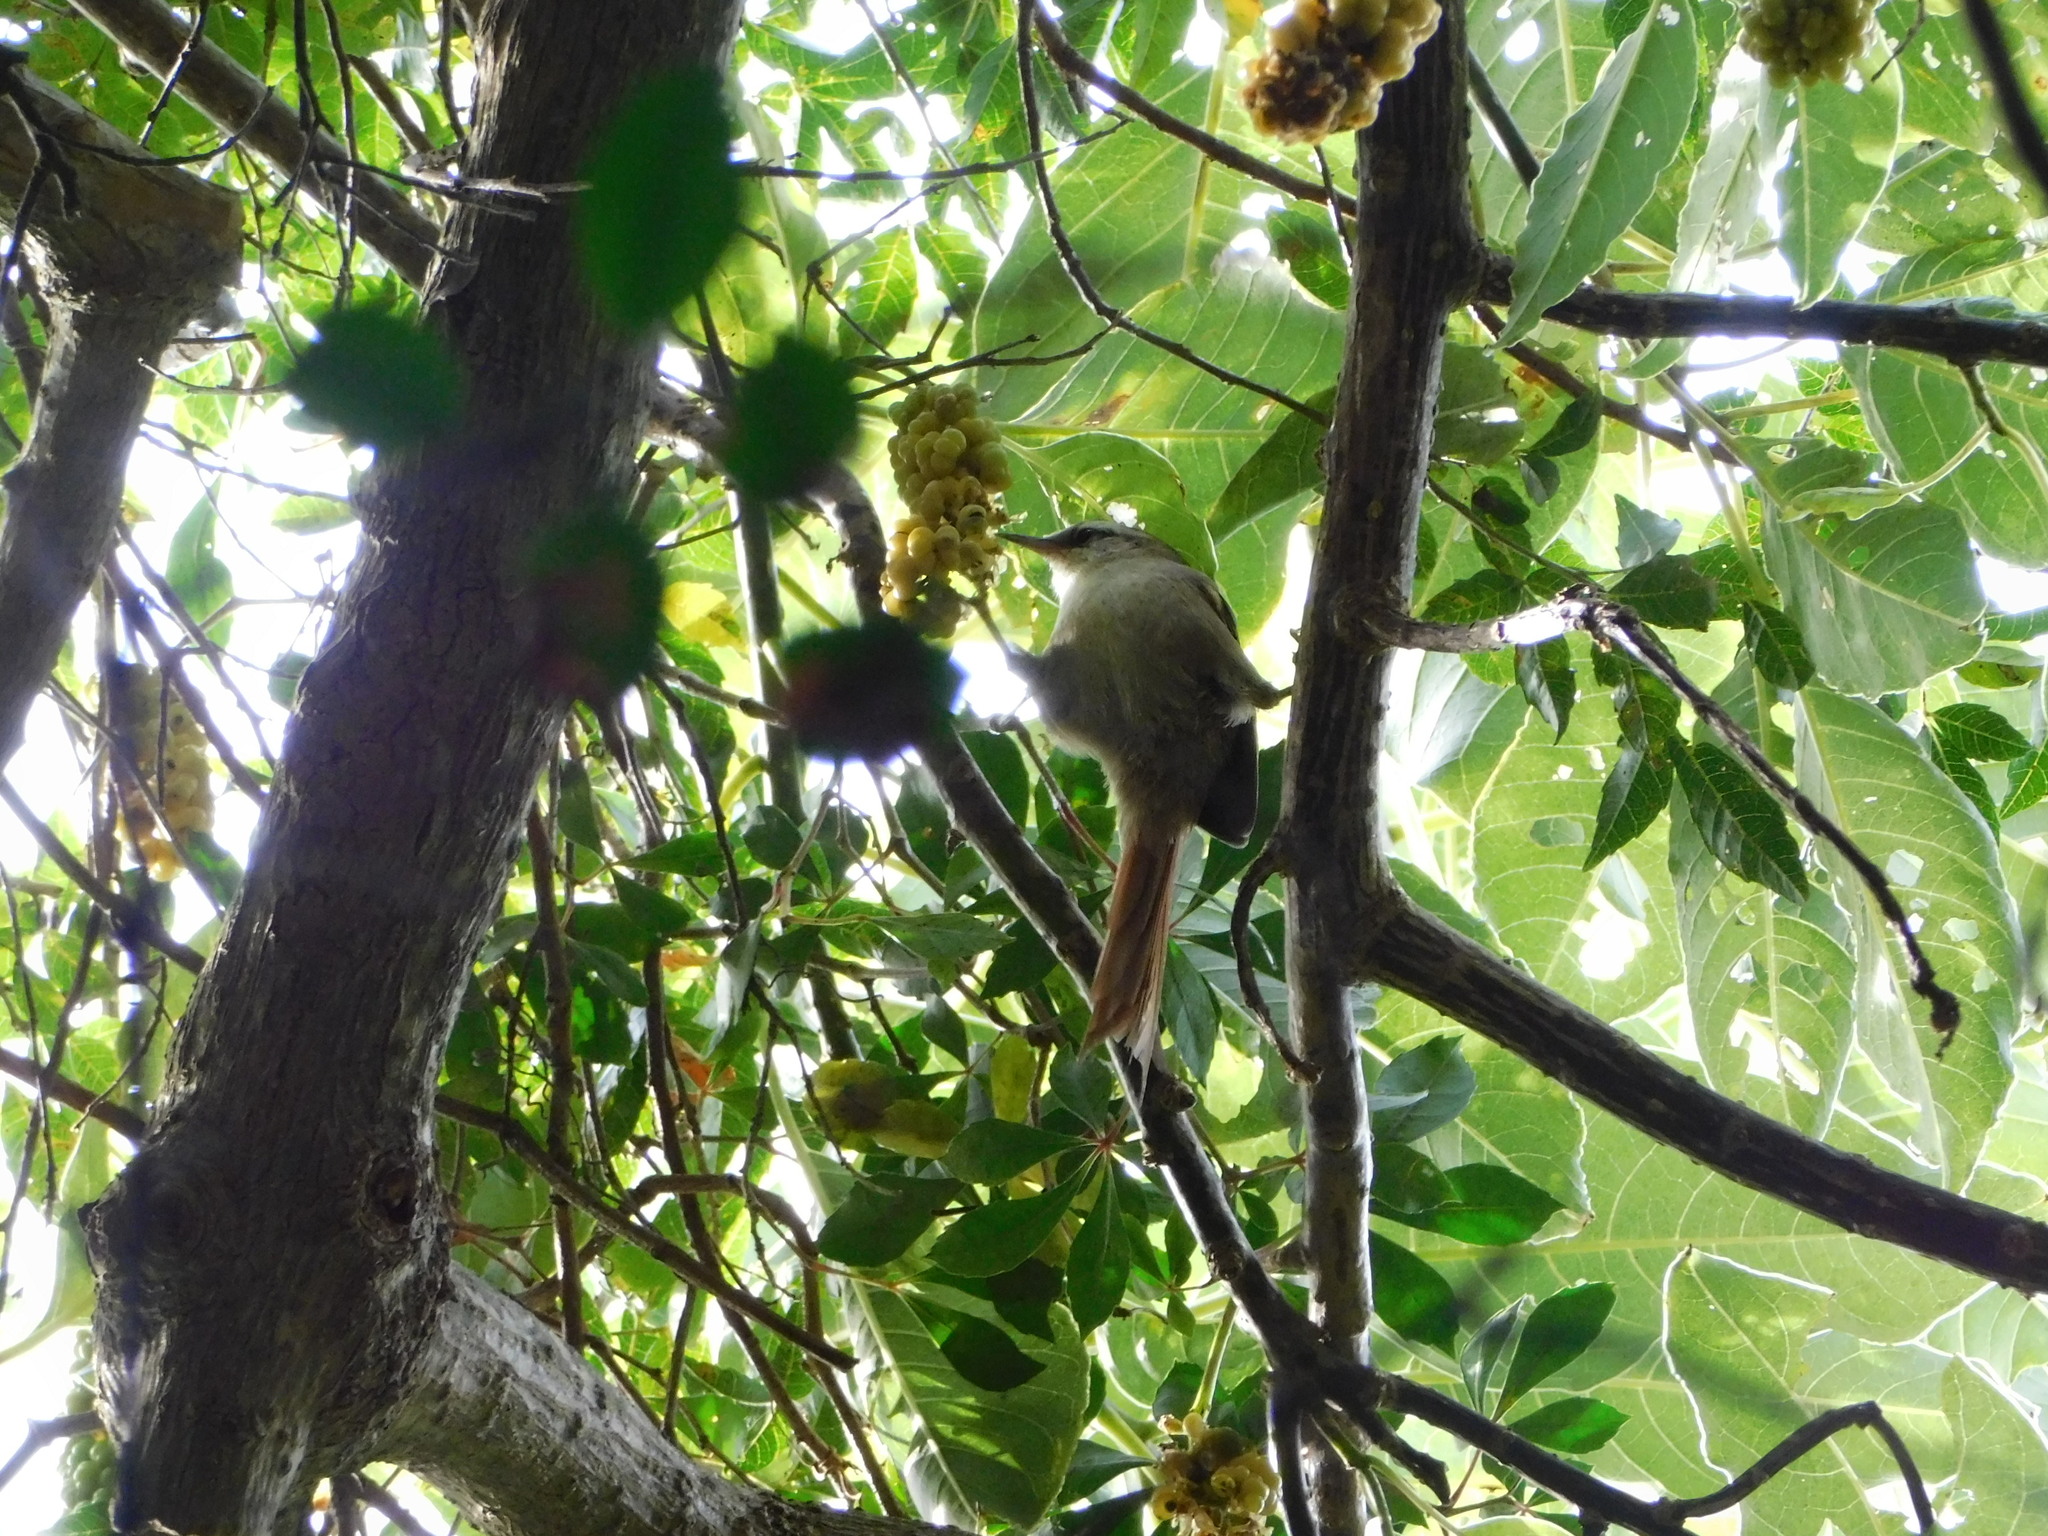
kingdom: Animalia
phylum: Chordata
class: Aves
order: Passeriformes
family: Furnariidae
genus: Cranioleuca
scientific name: Cranioleuca pyrrhophia
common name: Stripe-crowned spinetail
